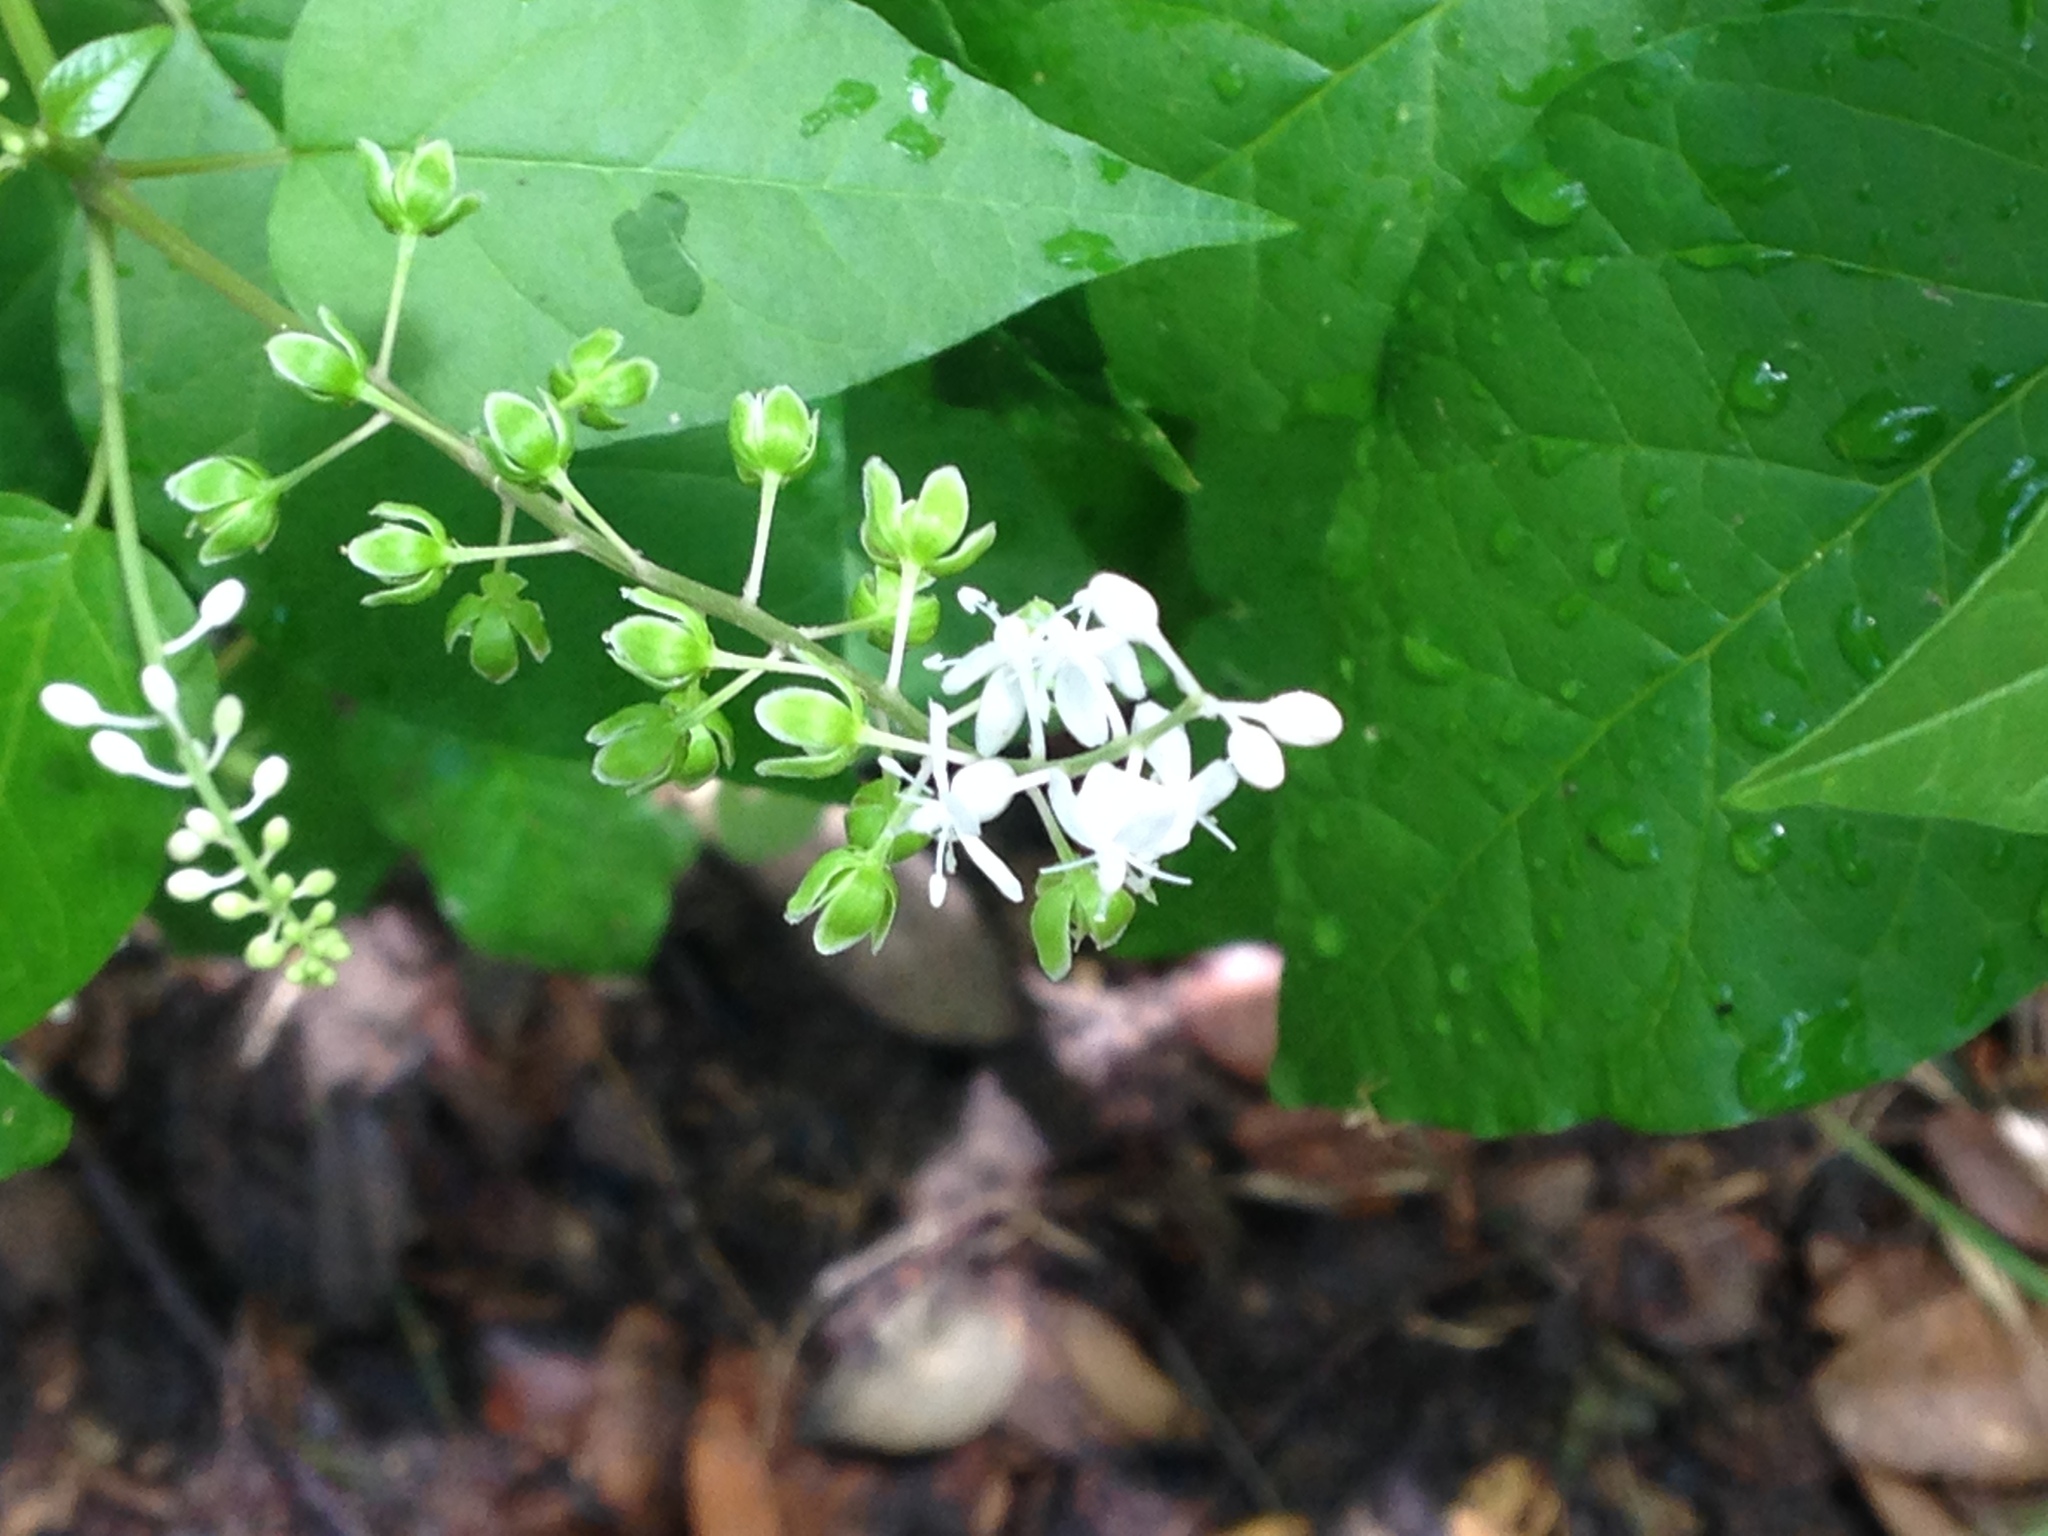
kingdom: Plantae
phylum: Tracheophyta
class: Magnoliopsida
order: Caryophyllales
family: Phytolaccaceae
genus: Rivina
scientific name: Rivina humilis
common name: Rougeplant
